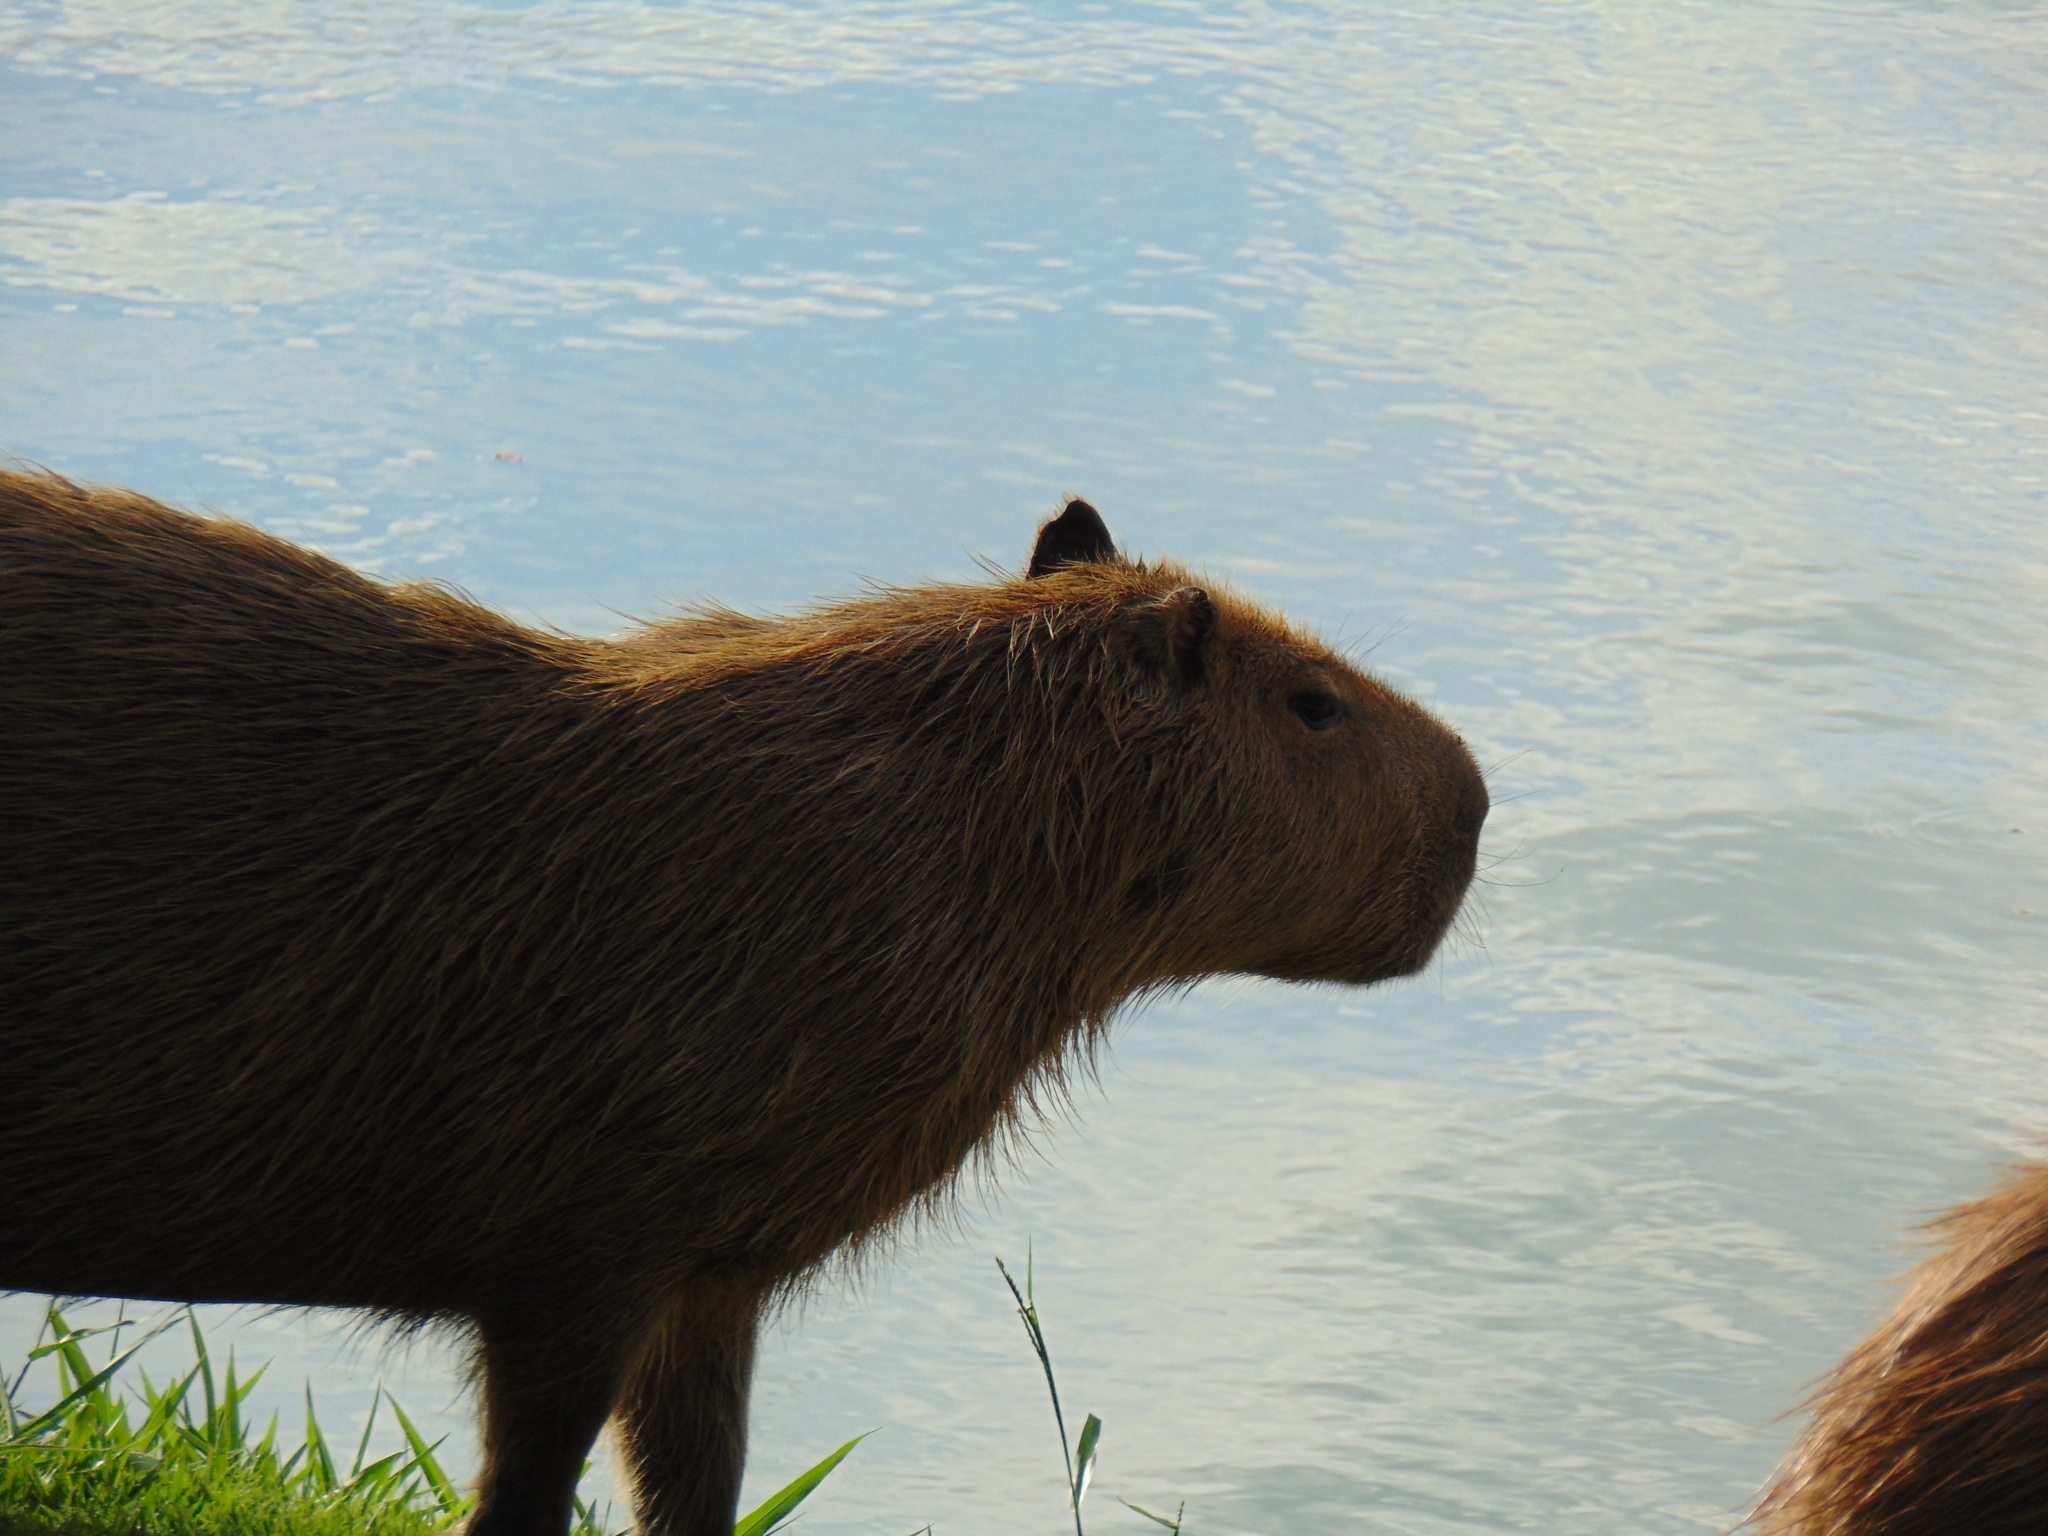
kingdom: Animalia
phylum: Chordata
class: Mammalia
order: Rodentia
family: Caviidae
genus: Hydrochoerus
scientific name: Hydrochoerus hydrochaeris
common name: Capybara
